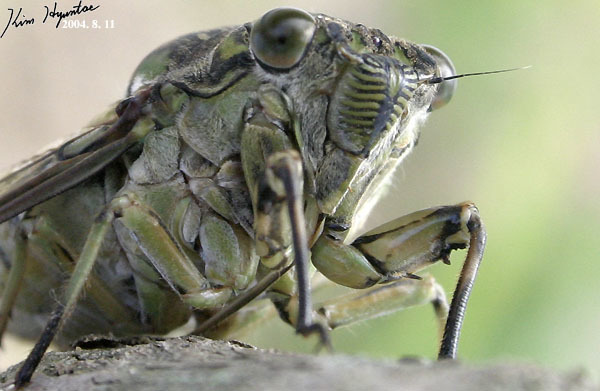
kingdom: Animalia
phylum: Arthropoda
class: Insecta
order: Hemiptera
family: Cicadidae
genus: Hyalessa
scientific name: Hyalessa maculaticollis
